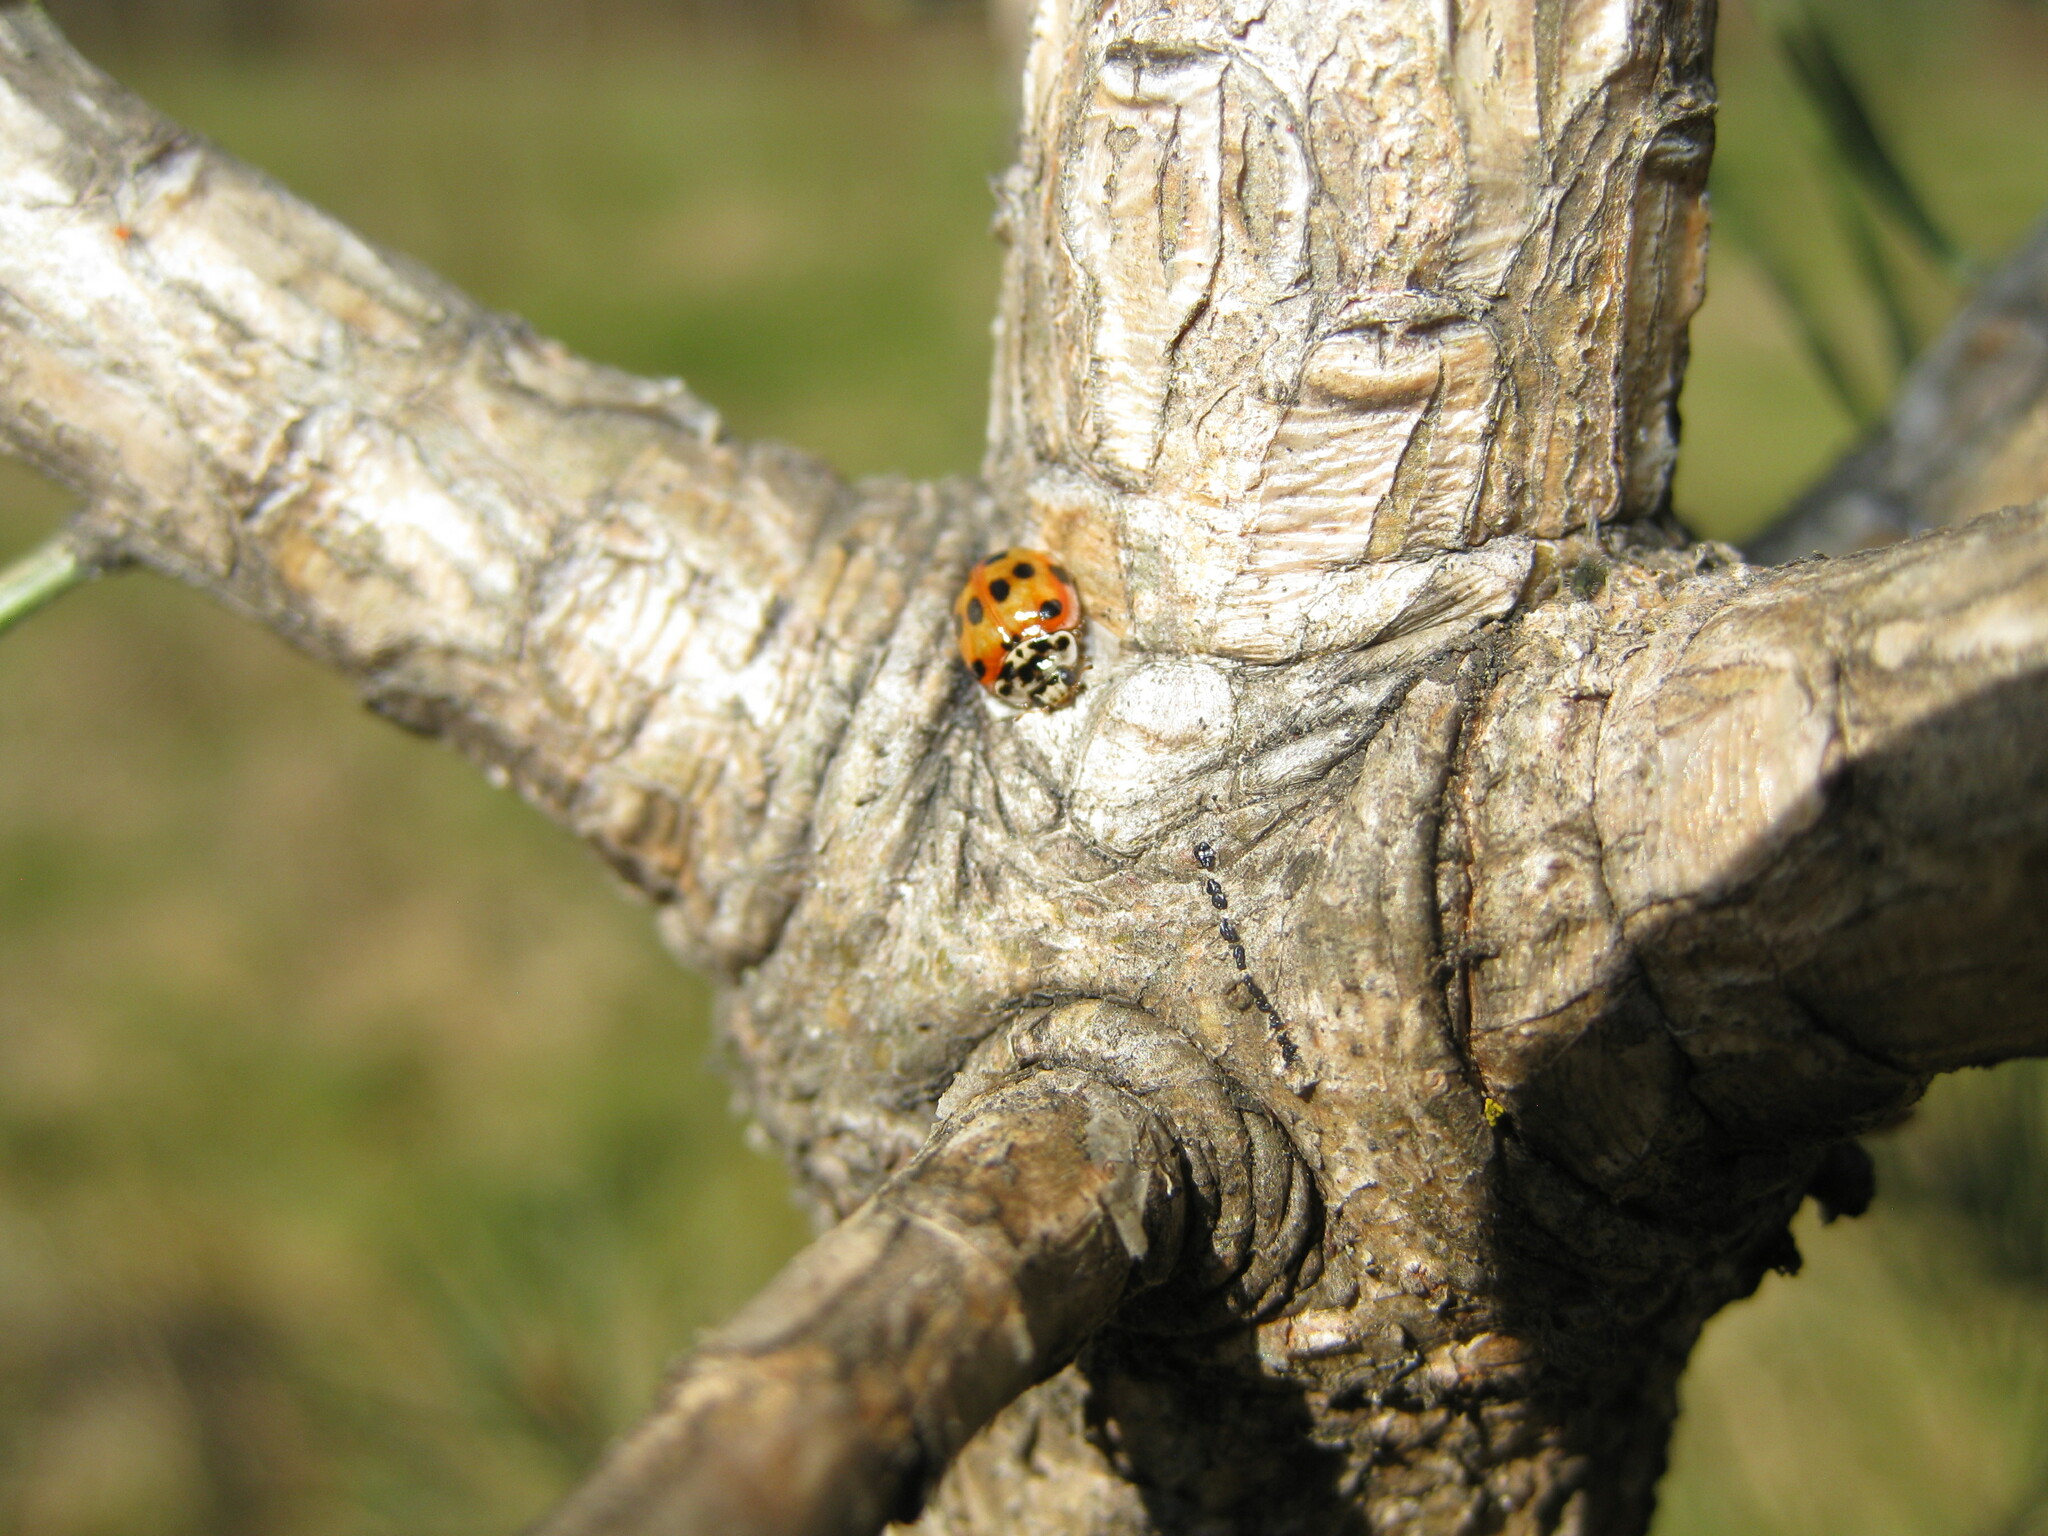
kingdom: Animalia
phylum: Arthropoda
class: Insecta
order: Coleoptera
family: Coccinellidae
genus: Adalia
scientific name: Adalia decempunctata
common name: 10-spot ladybird
